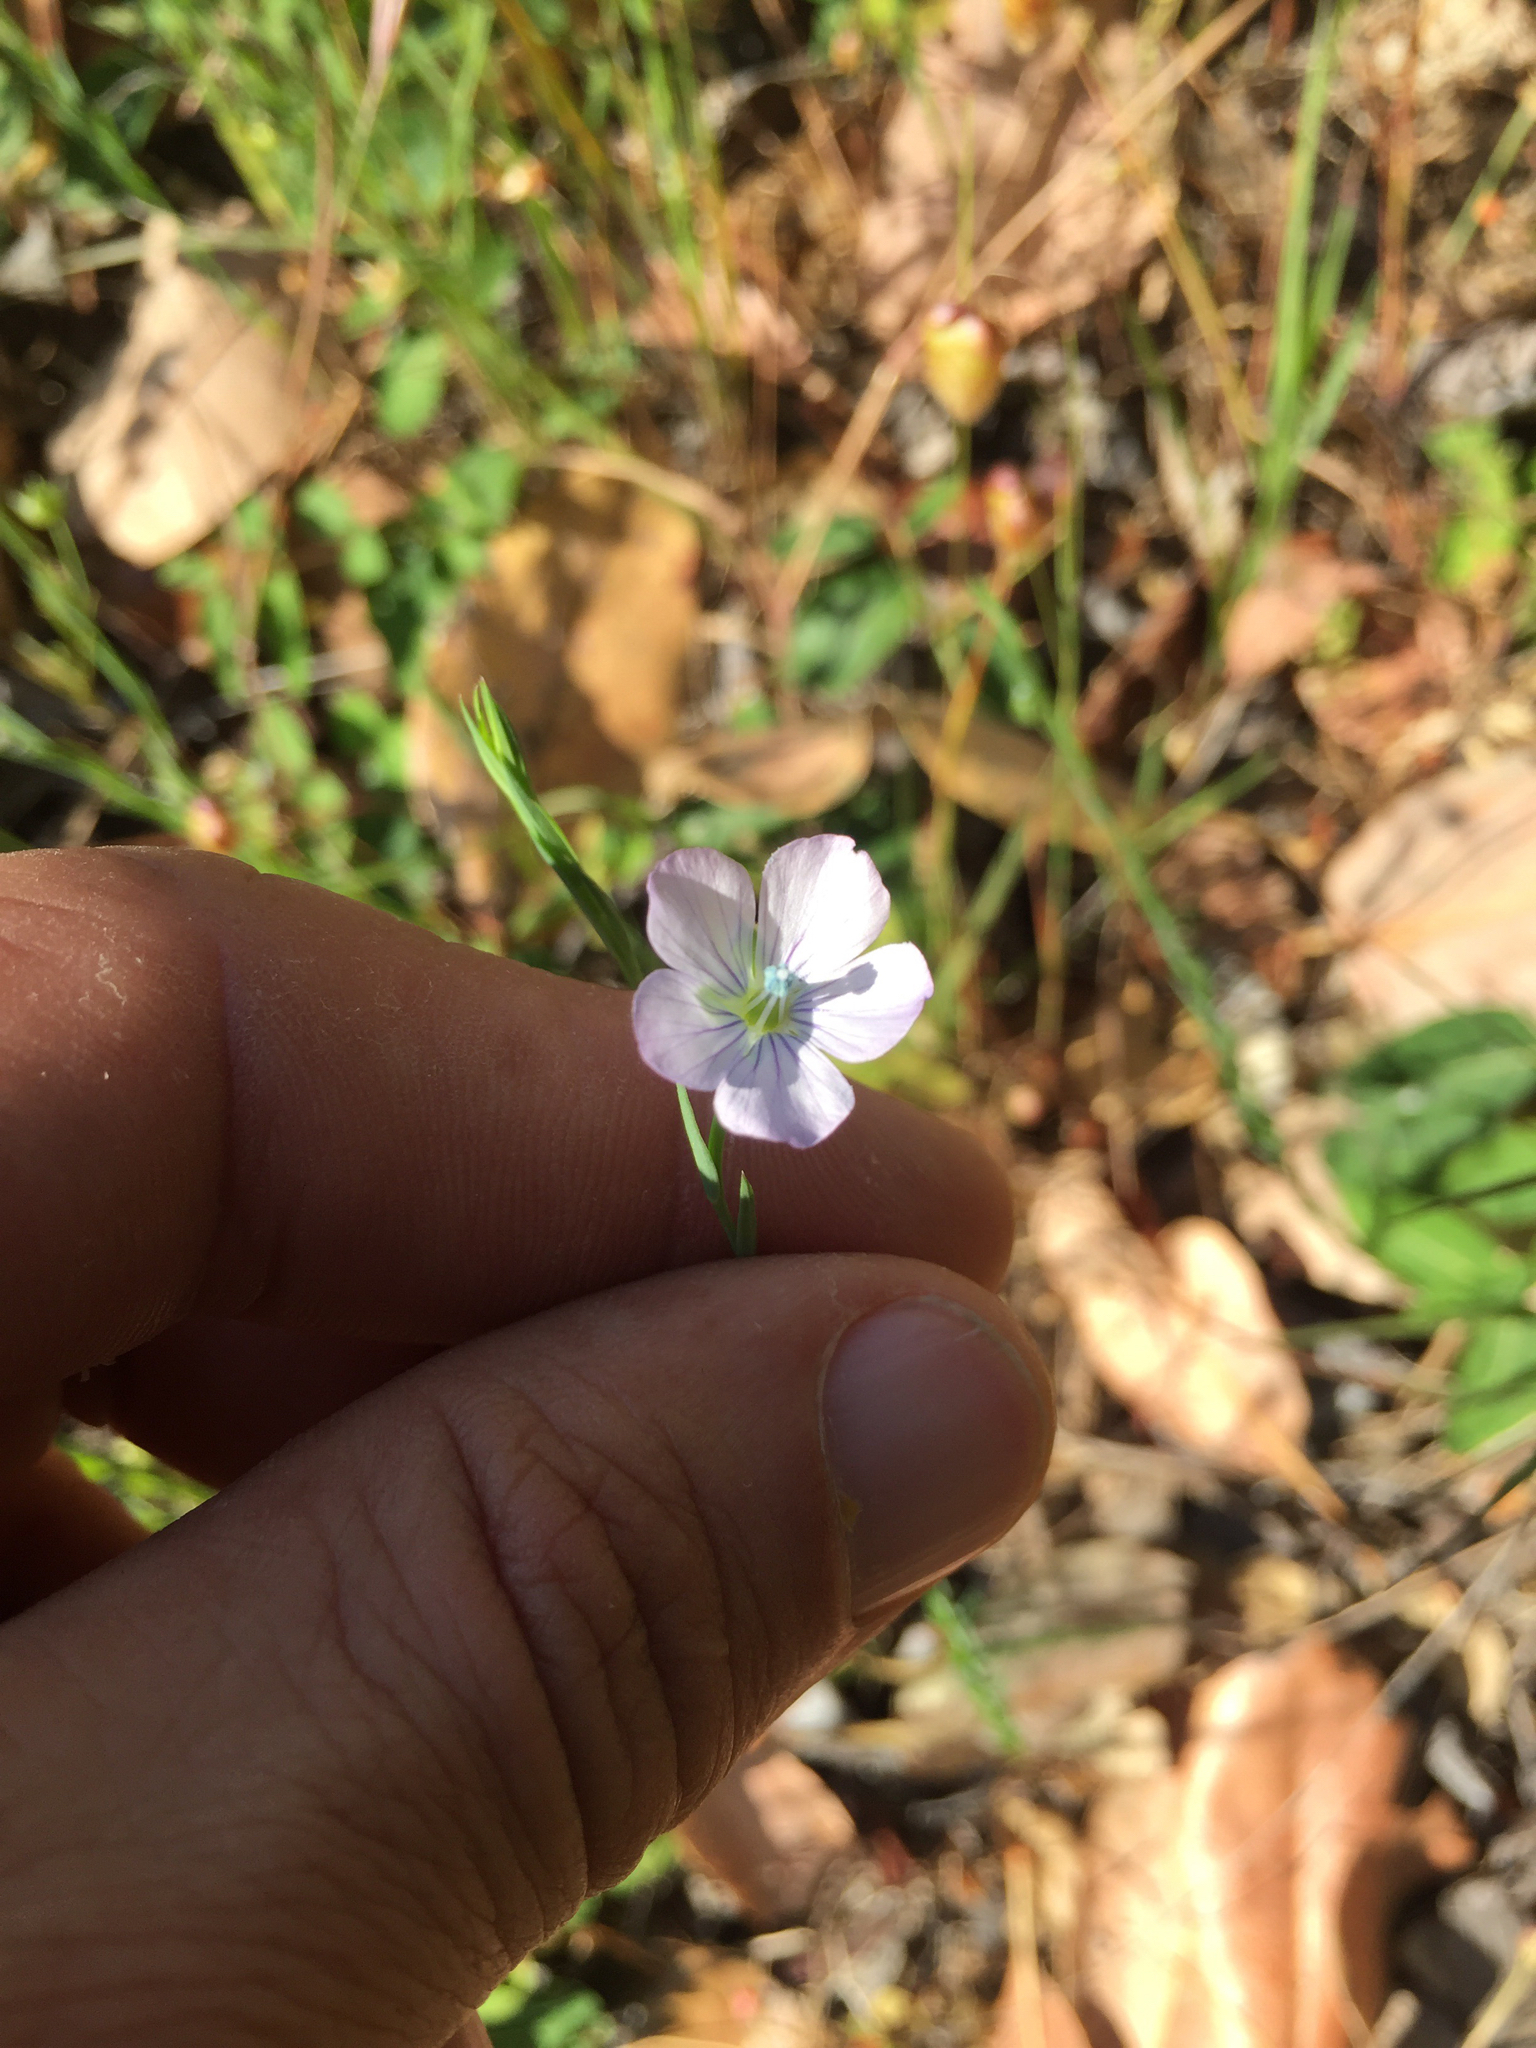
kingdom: Plantae
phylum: Tracheophyta
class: Magnoliopsida
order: Malpighiales
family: Linaceae
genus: Linum
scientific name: Linum bienne
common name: Pale flax
